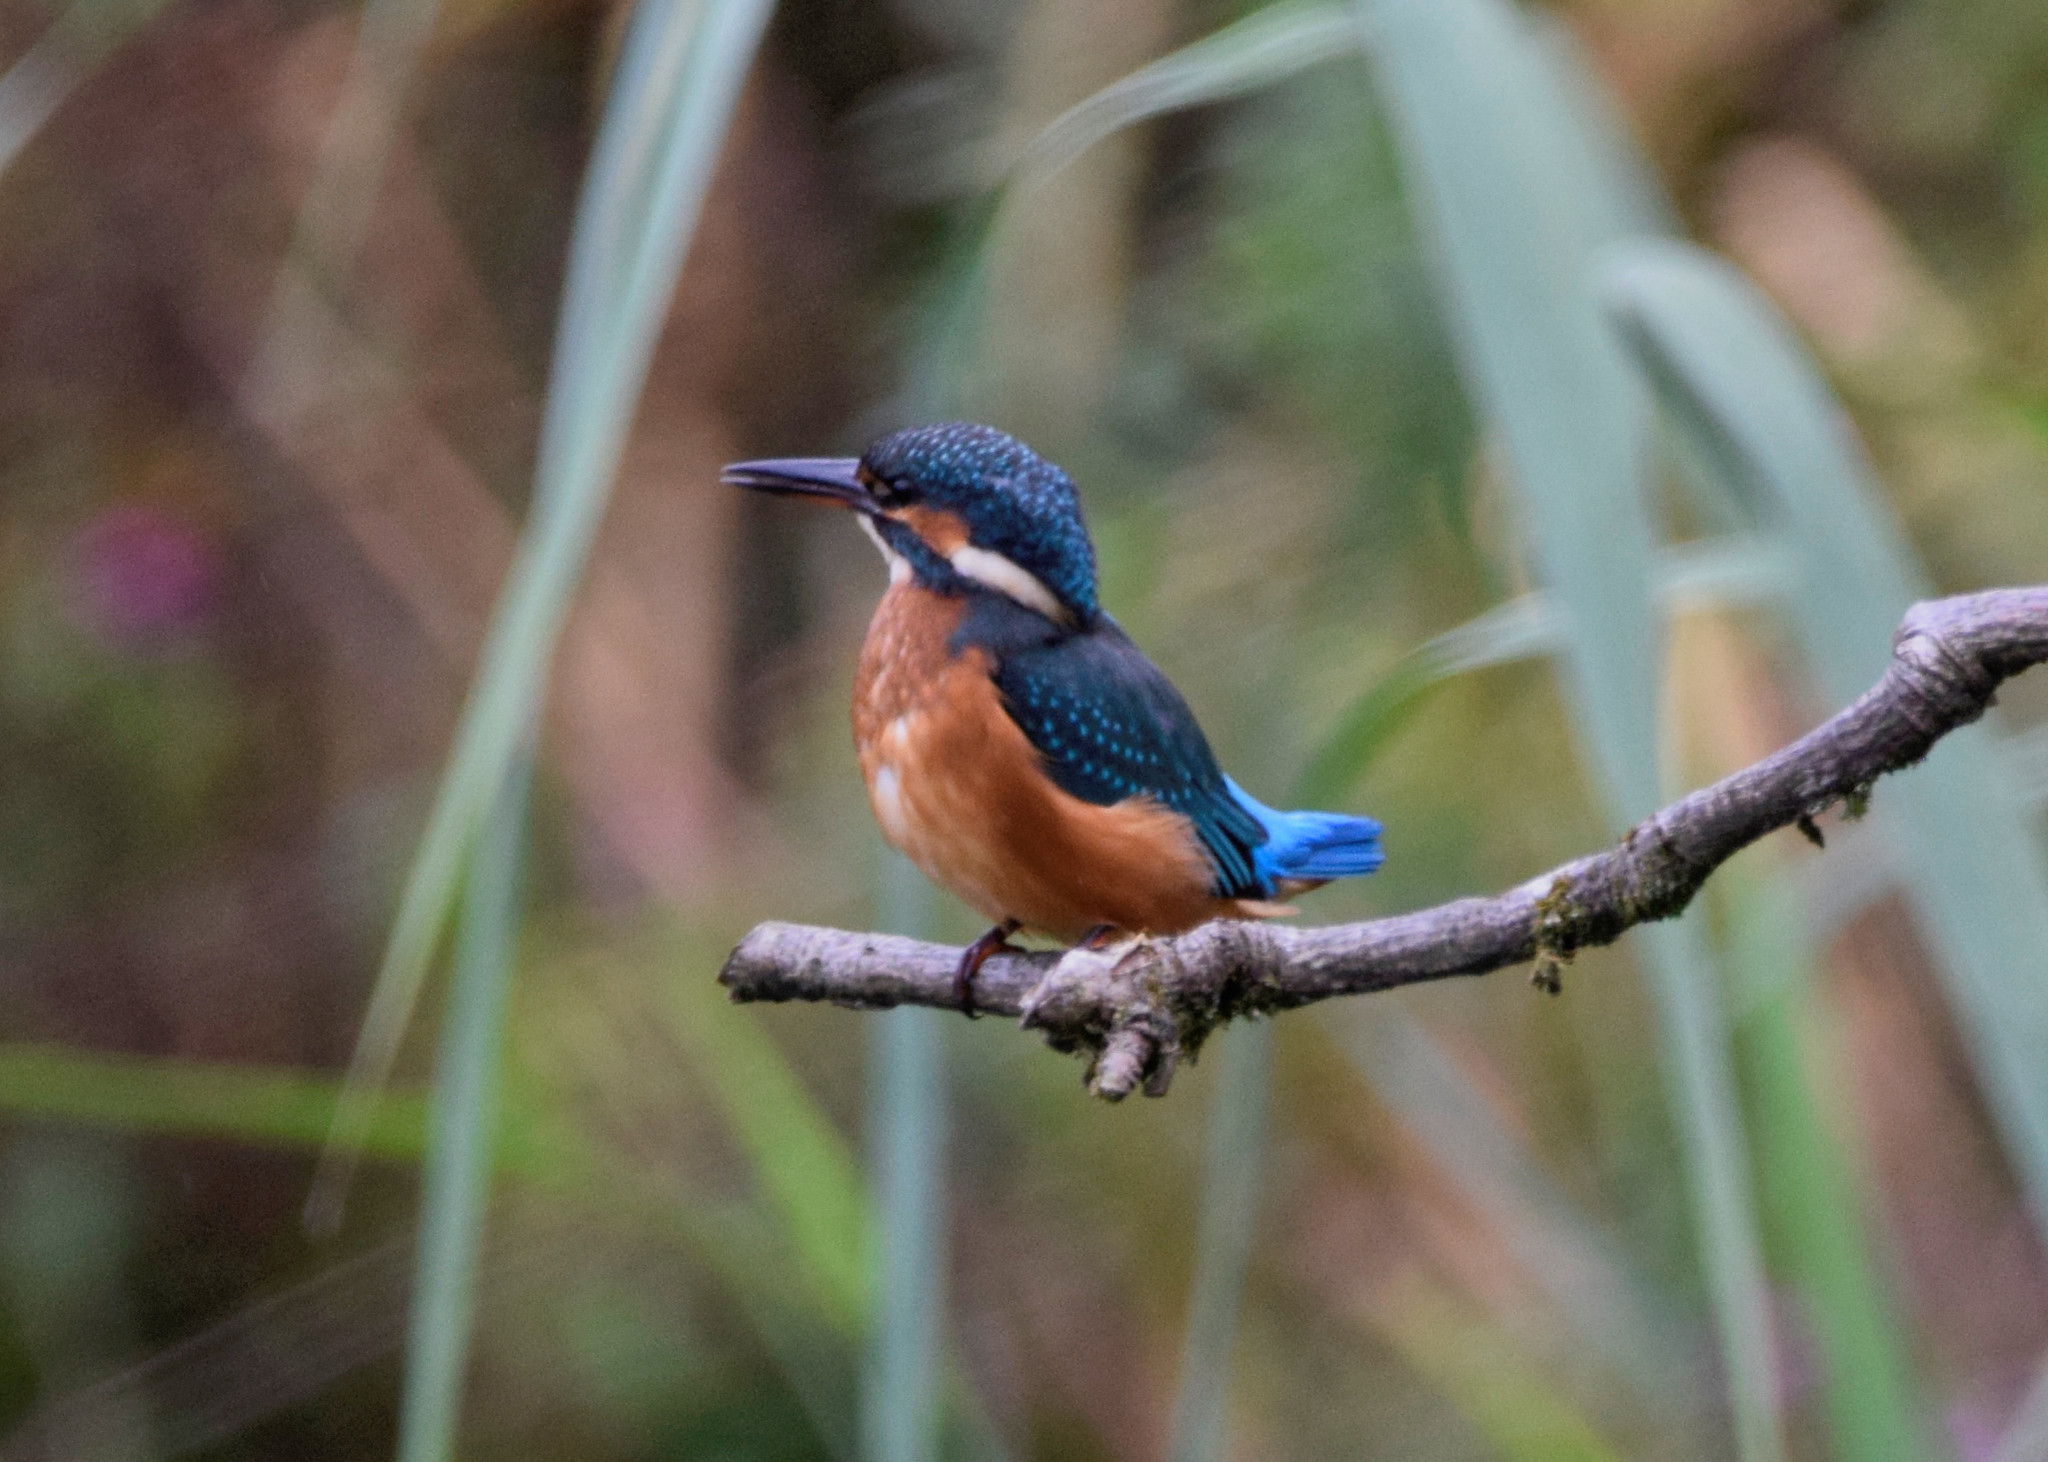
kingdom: Animalia
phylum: Chordata
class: Aves
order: Coraciiformes
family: Alcedinidae
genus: Alcedo
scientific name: Alcedo atthis
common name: Common kingfisher
